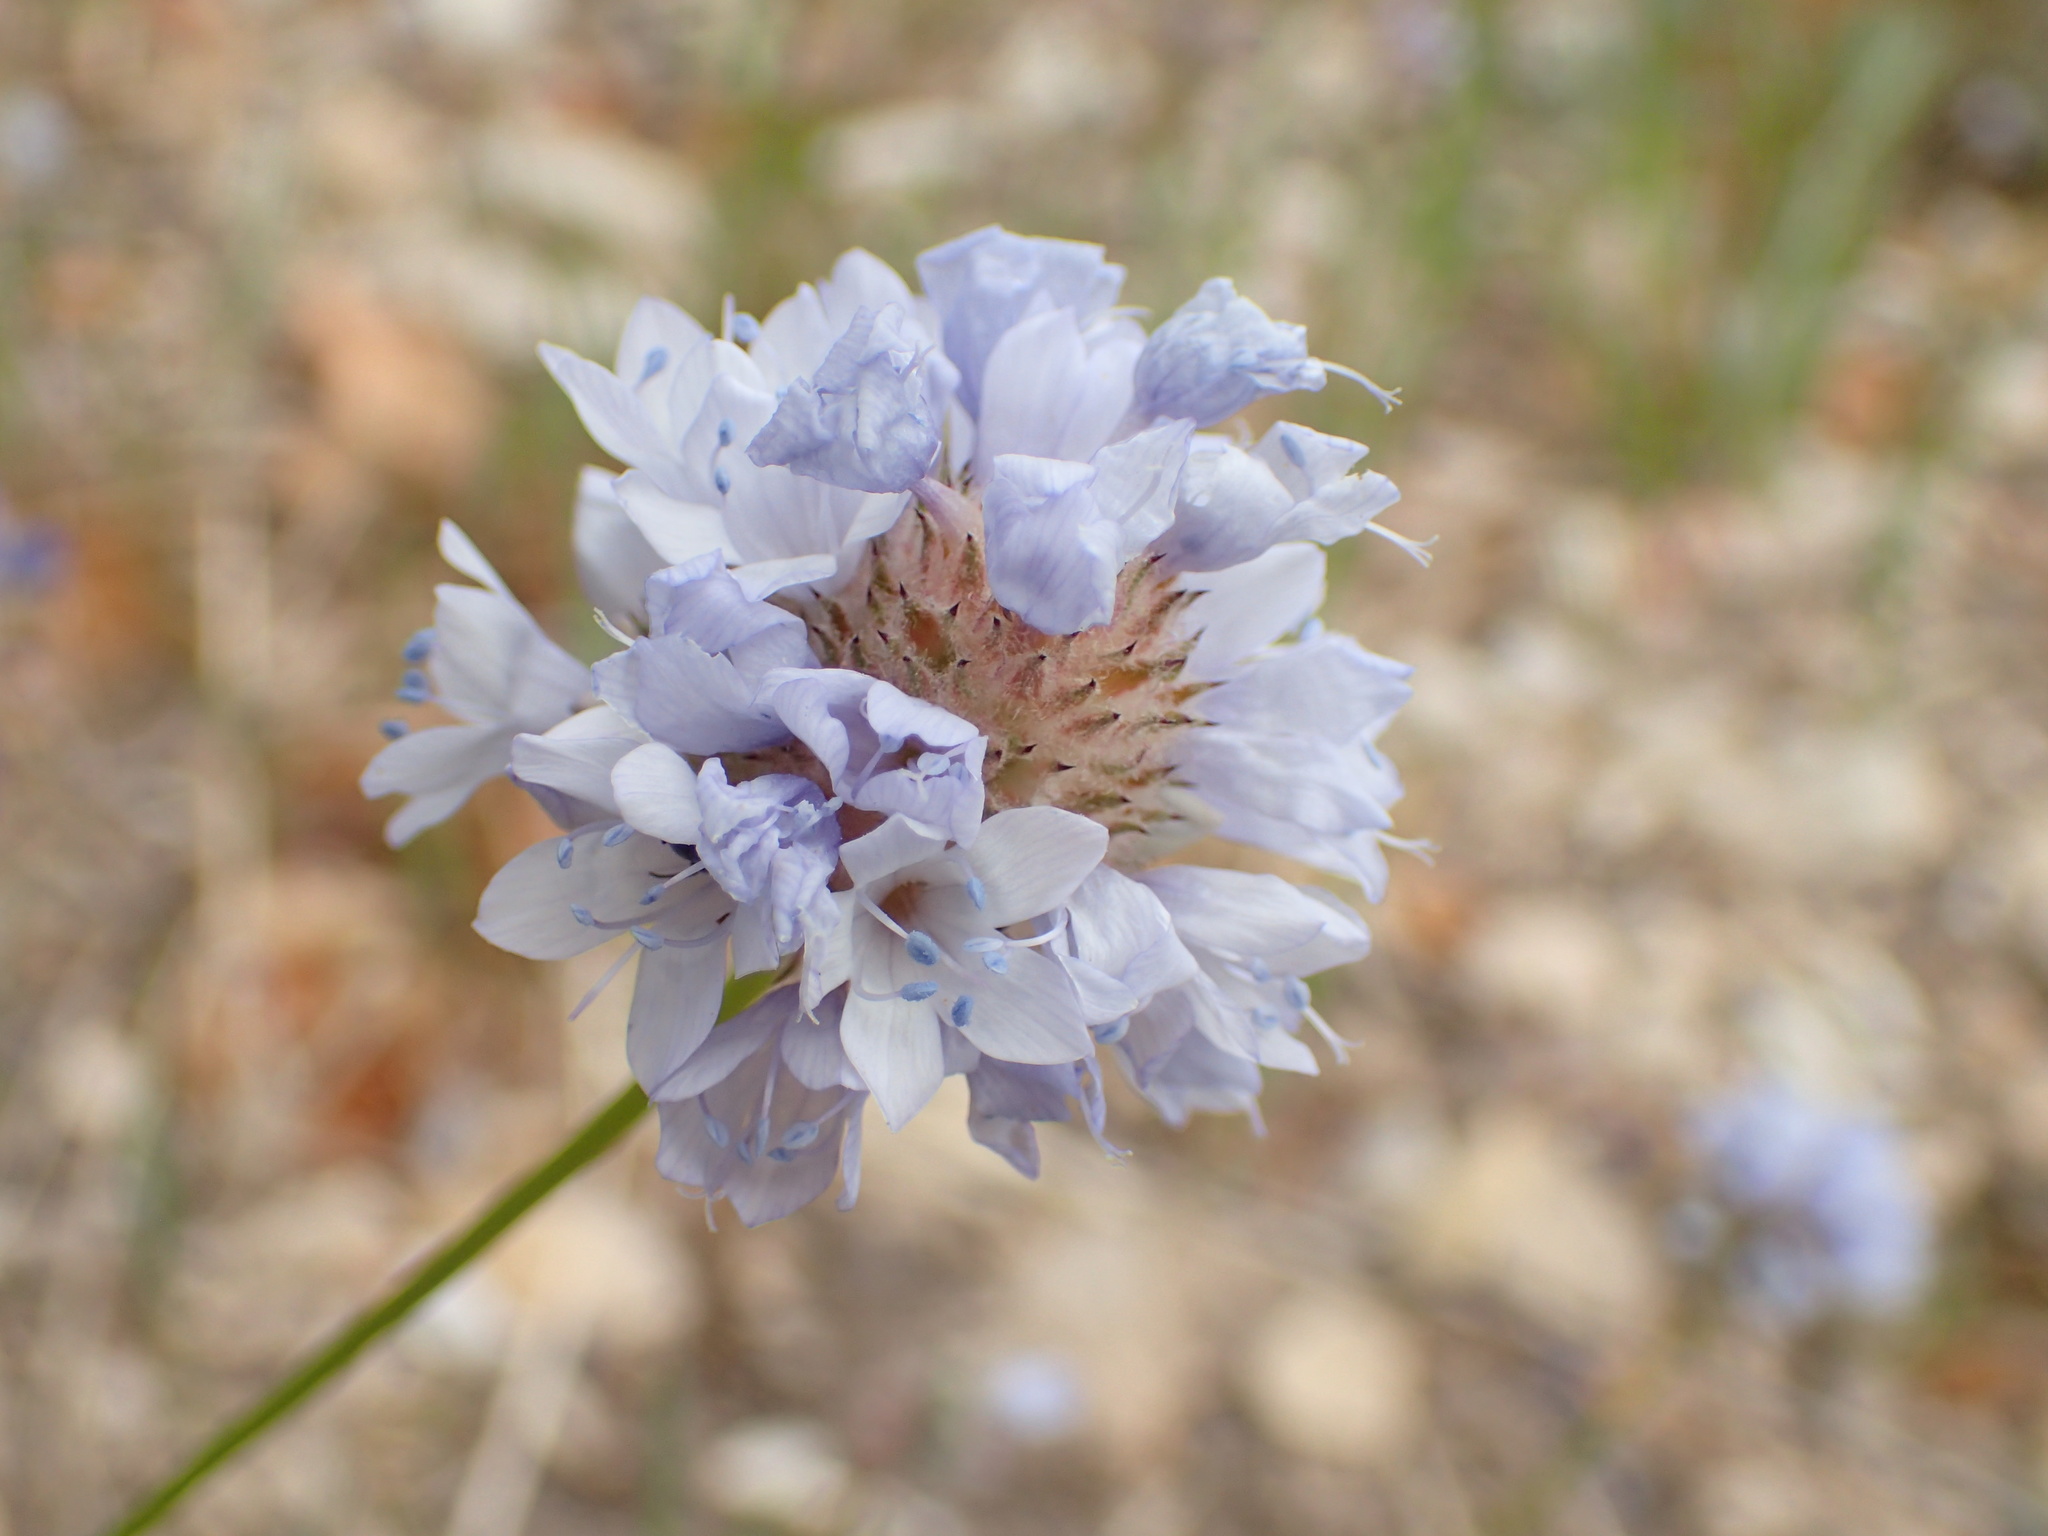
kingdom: Plantae
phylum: Tracheophyta
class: Magnoliopsida
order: Ericales
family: Polemoniaceae
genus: Gilia
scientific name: Gilia capitata
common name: Bluehead gilia
